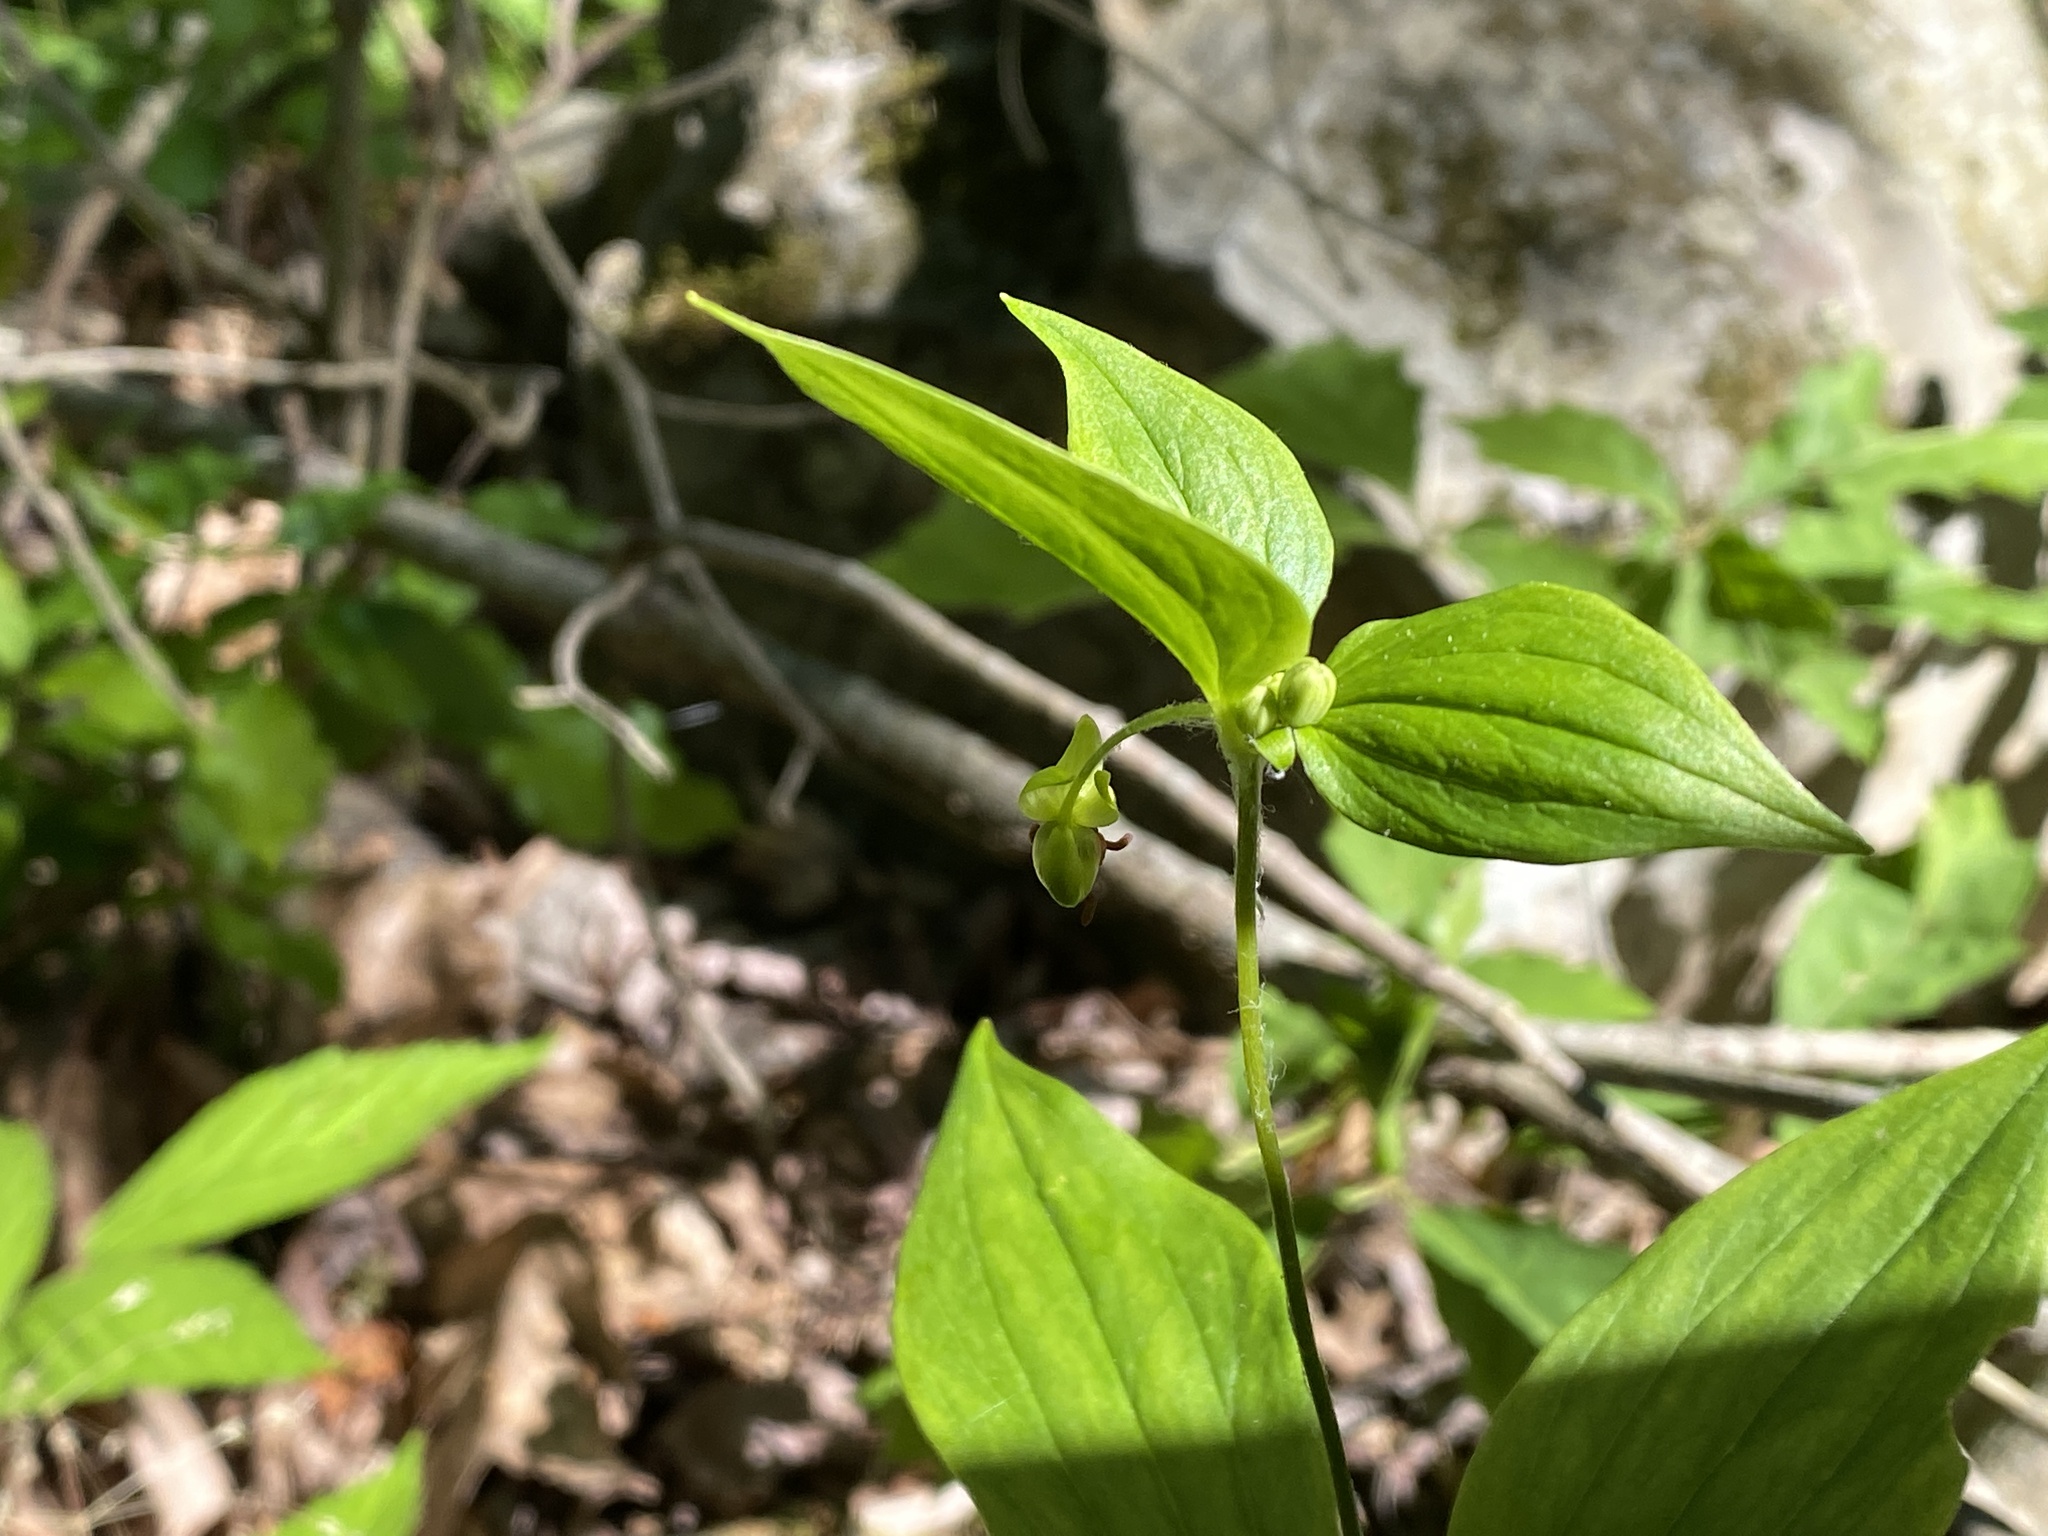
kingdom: Plantae
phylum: Tracheophyta
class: Liliopsida
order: Liliales
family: Liliaceae
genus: Medeola
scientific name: Medeola virginiana
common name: Indian cucumber-root
